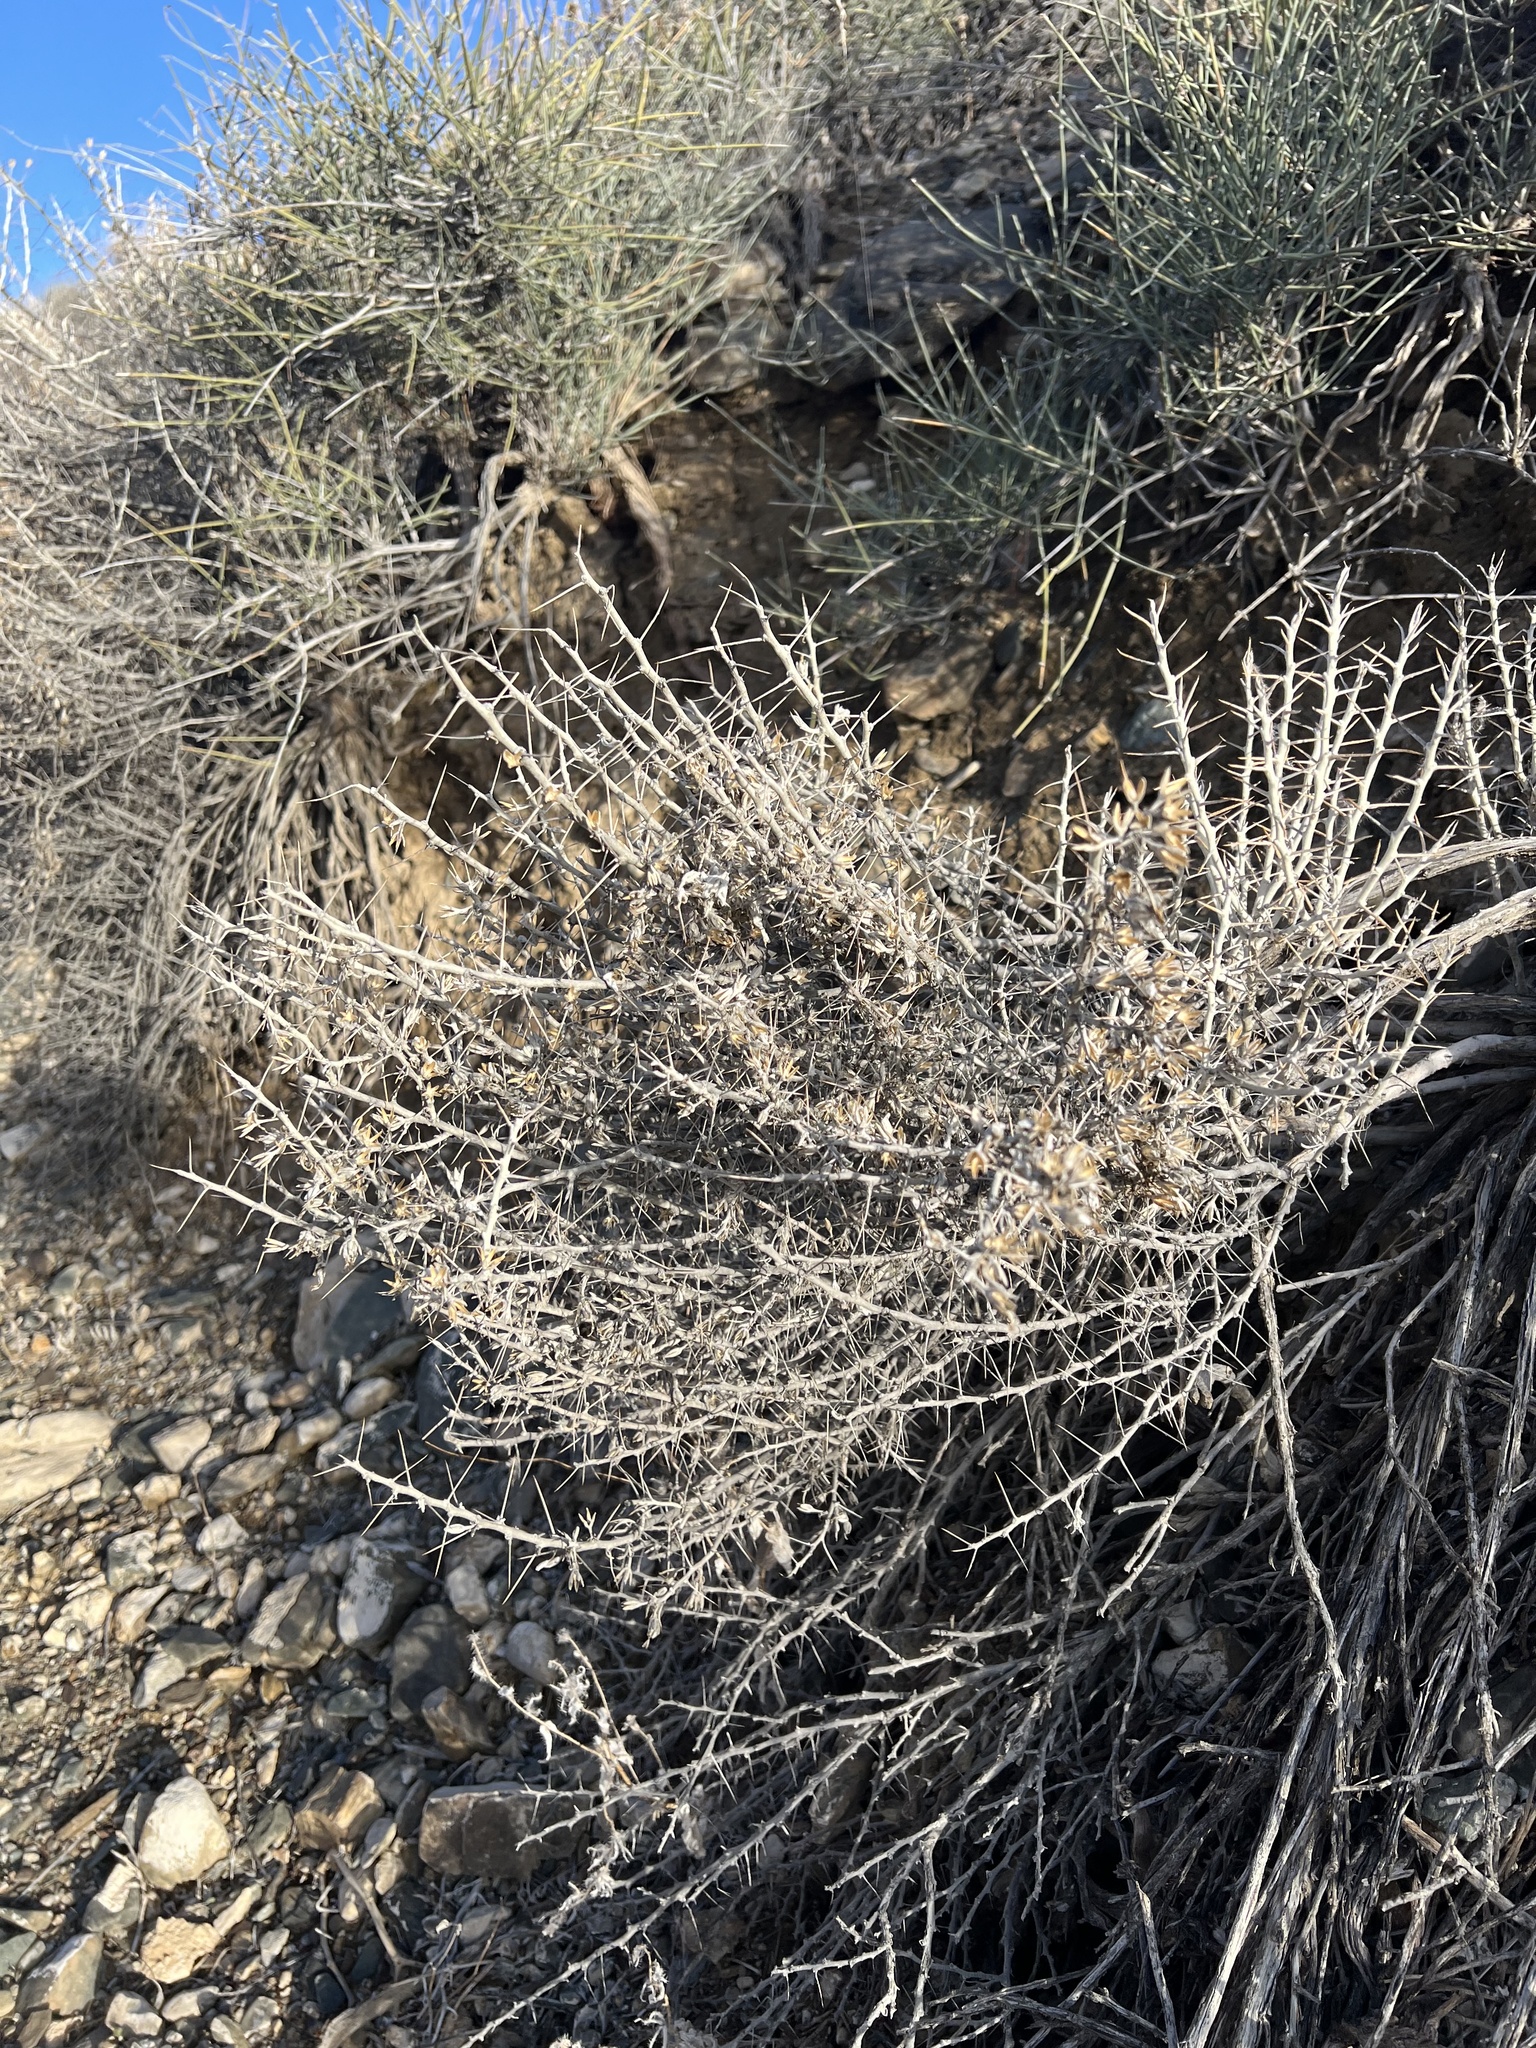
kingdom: Plantae
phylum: Tracheophyta
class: Magnoliopsida
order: Asterales
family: Asteraceae
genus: Tetradymia
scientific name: Tetradymia axillaris
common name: Long-spine horsebrush
